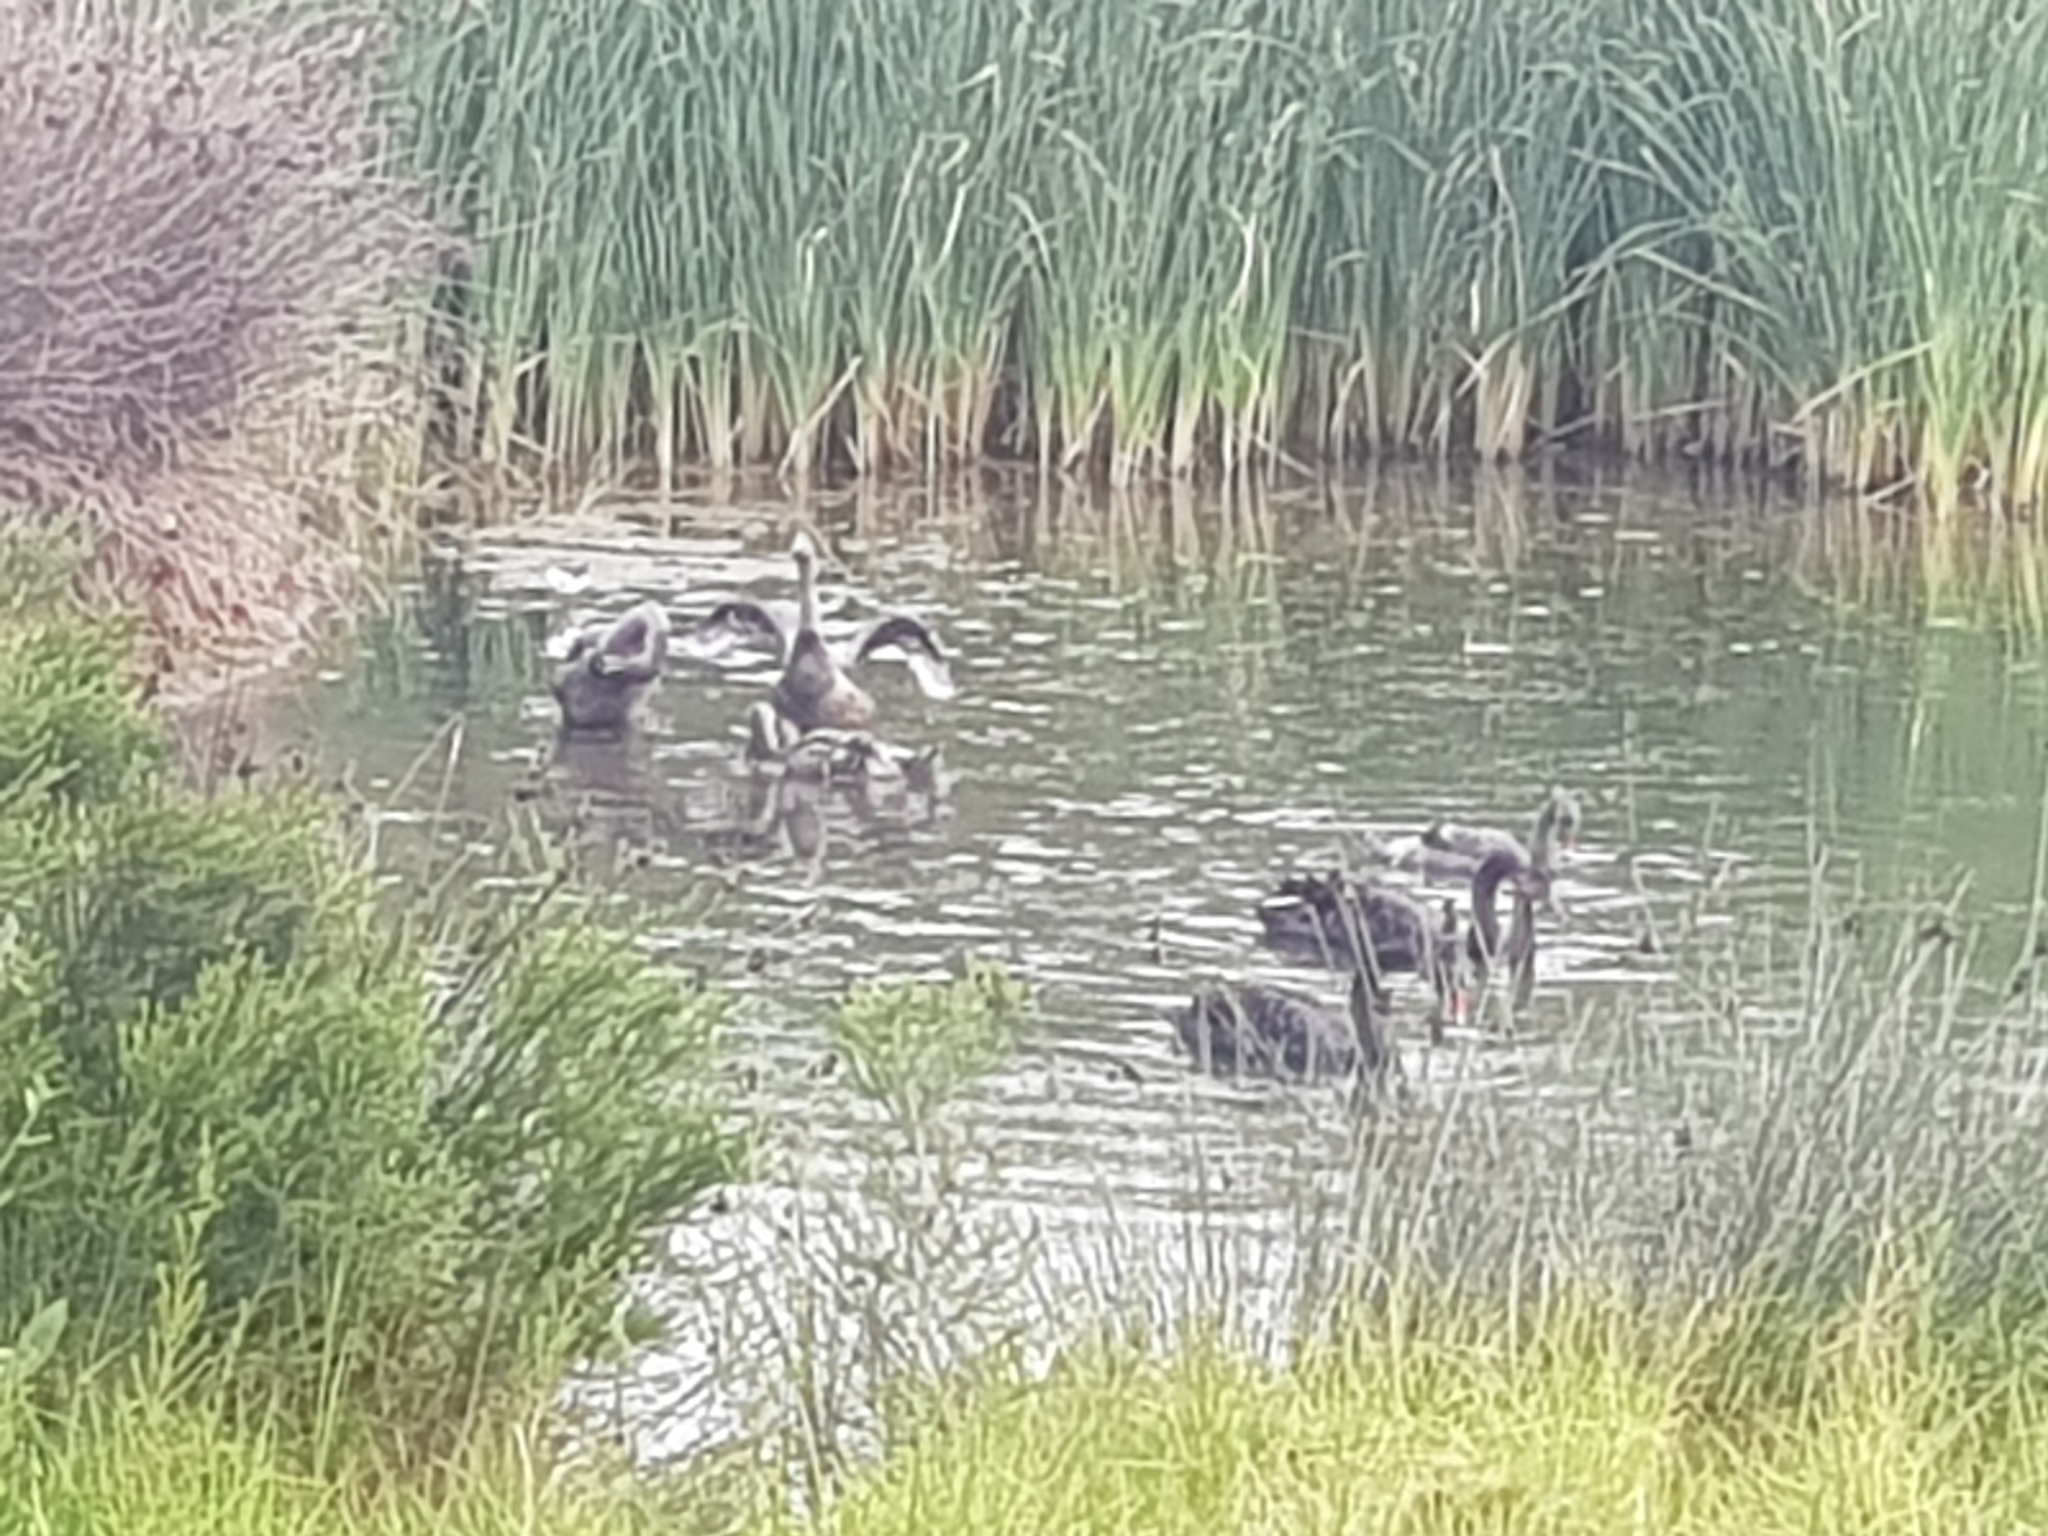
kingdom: Animalia
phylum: Chordata
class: Aves
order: Anseriformes
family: Anatidae
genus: Cygnus
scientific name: Cygnus atratus
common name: Black swan
